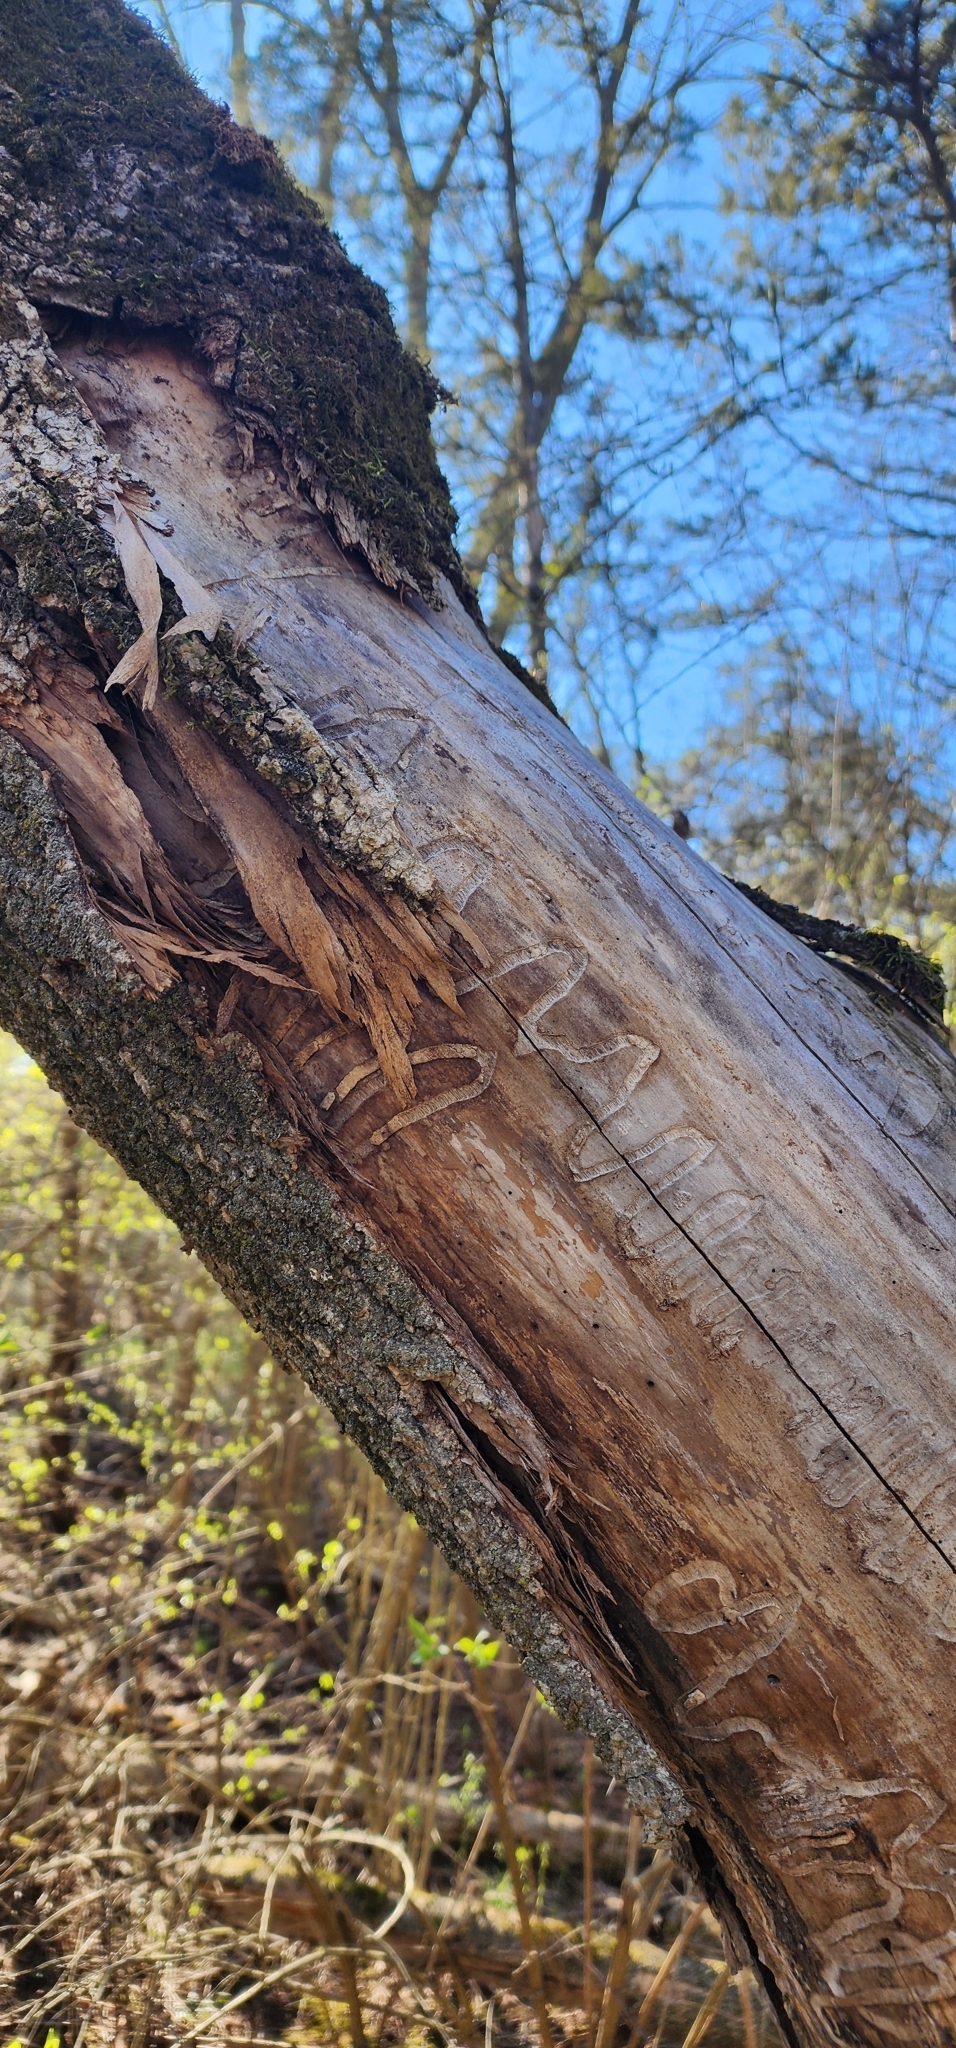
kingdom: Animalia
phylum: Arthropoda
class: Insecta
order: Coleoptera
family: Buprestidae
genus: Agrilus
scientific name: Agrilus planipennis
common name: Emerald ash borer
